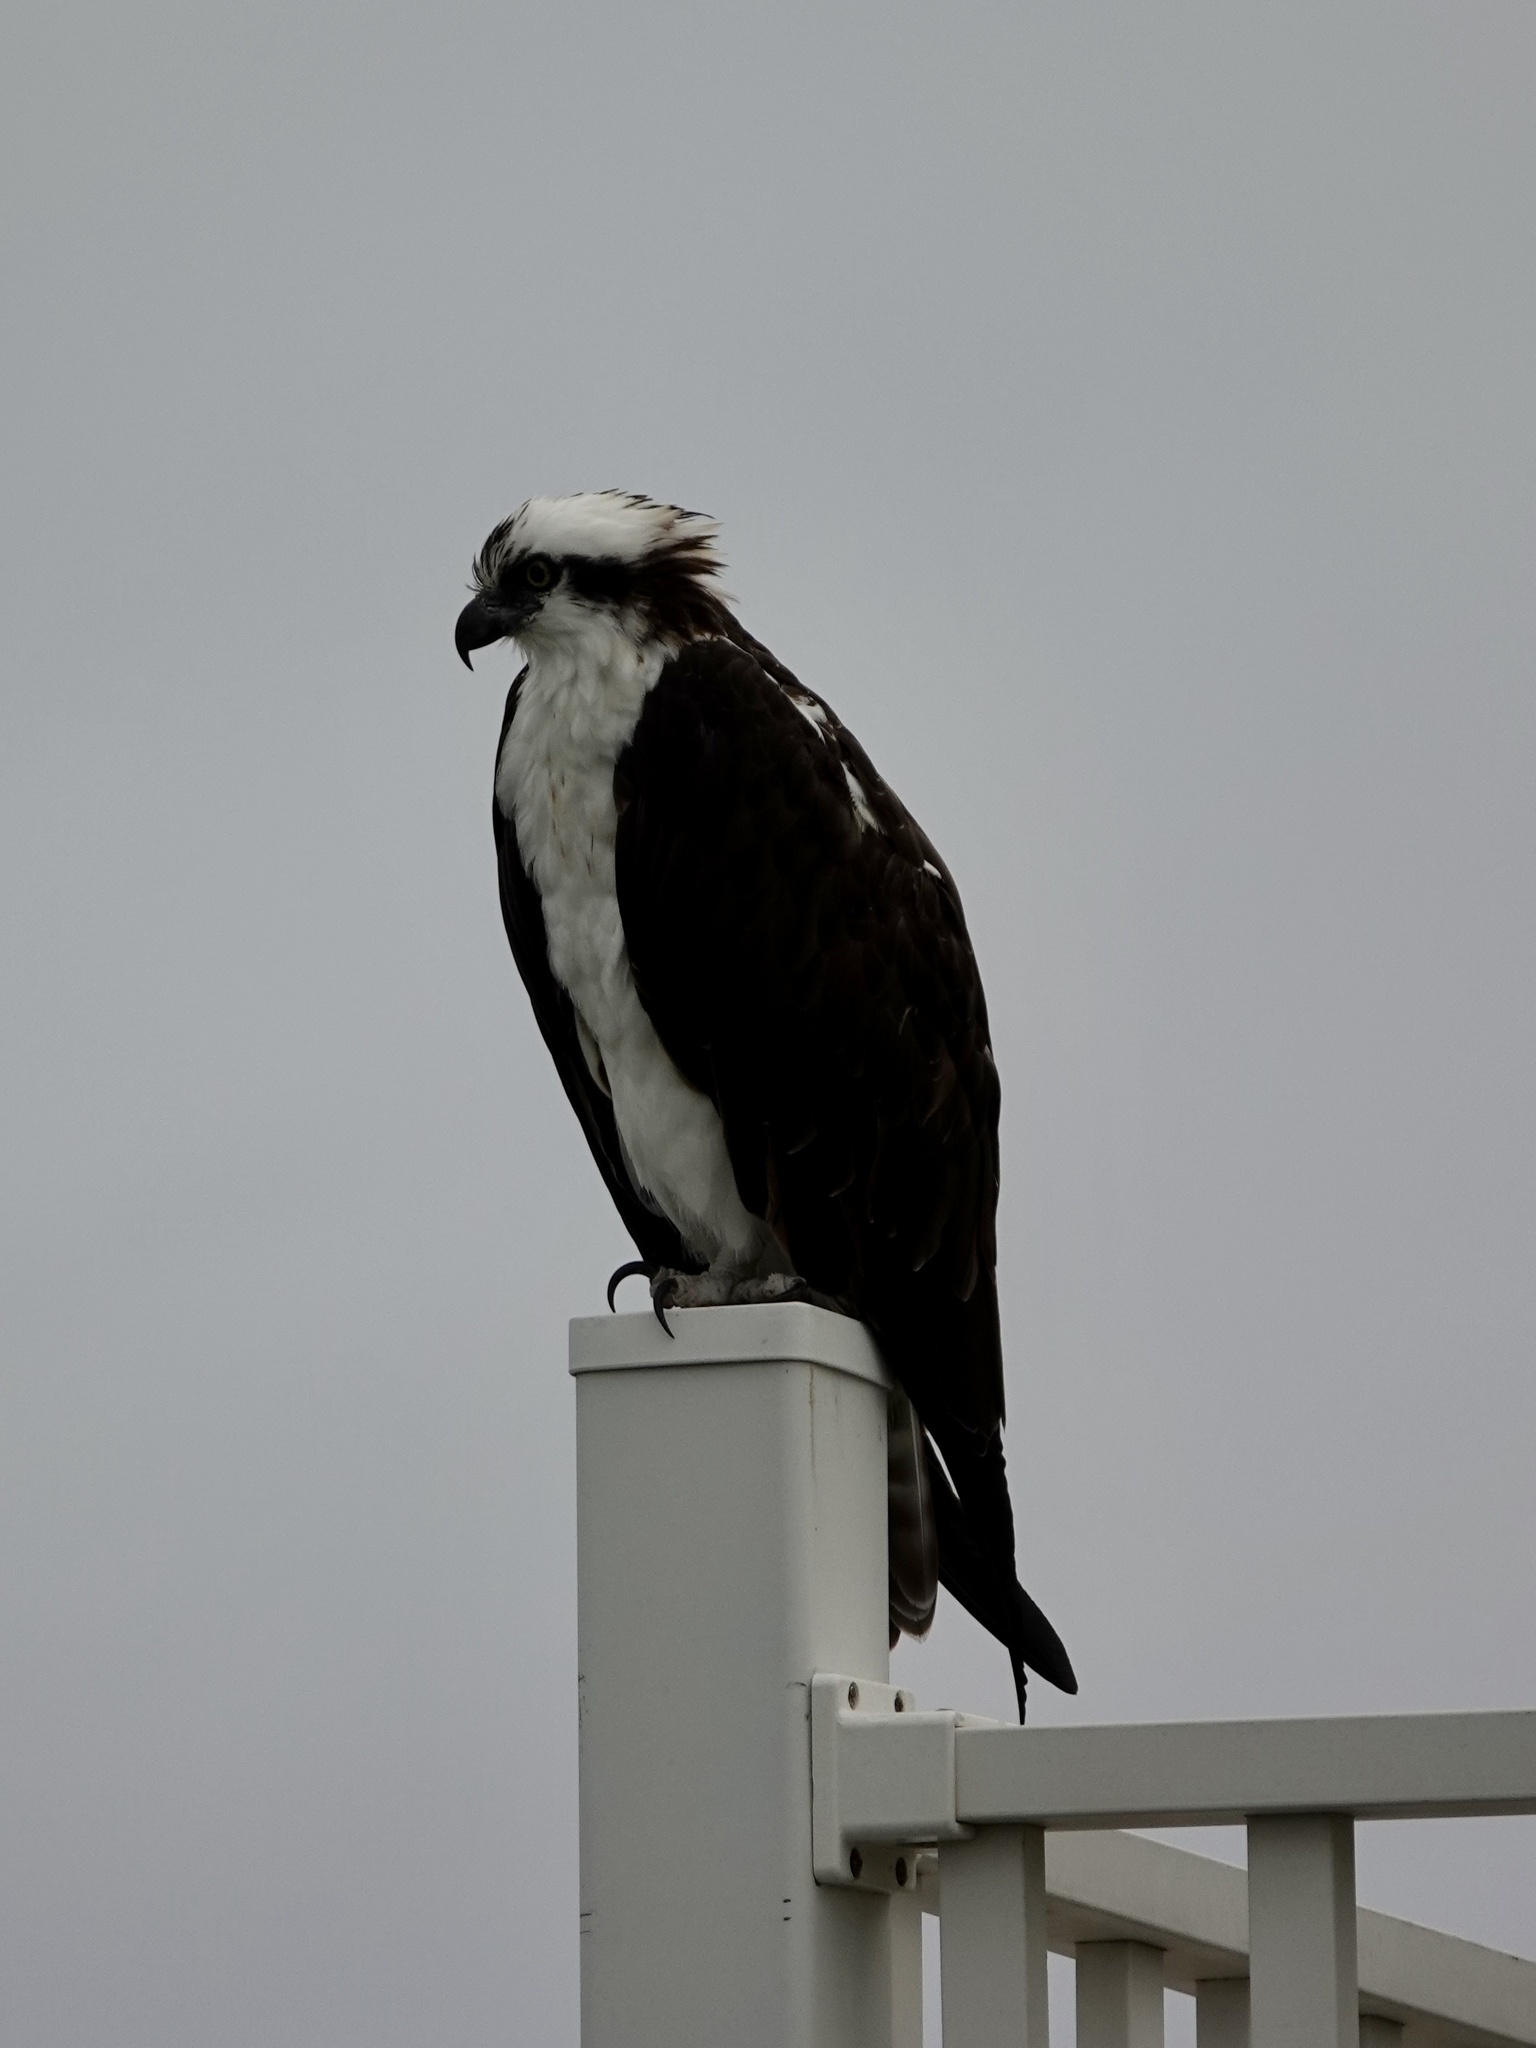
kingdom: Animalia
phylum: Chordata
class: Aves
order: Accipitriformes
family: Pandionidae
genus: Pandion
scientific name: Pandion haliaetus
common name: Osprey
